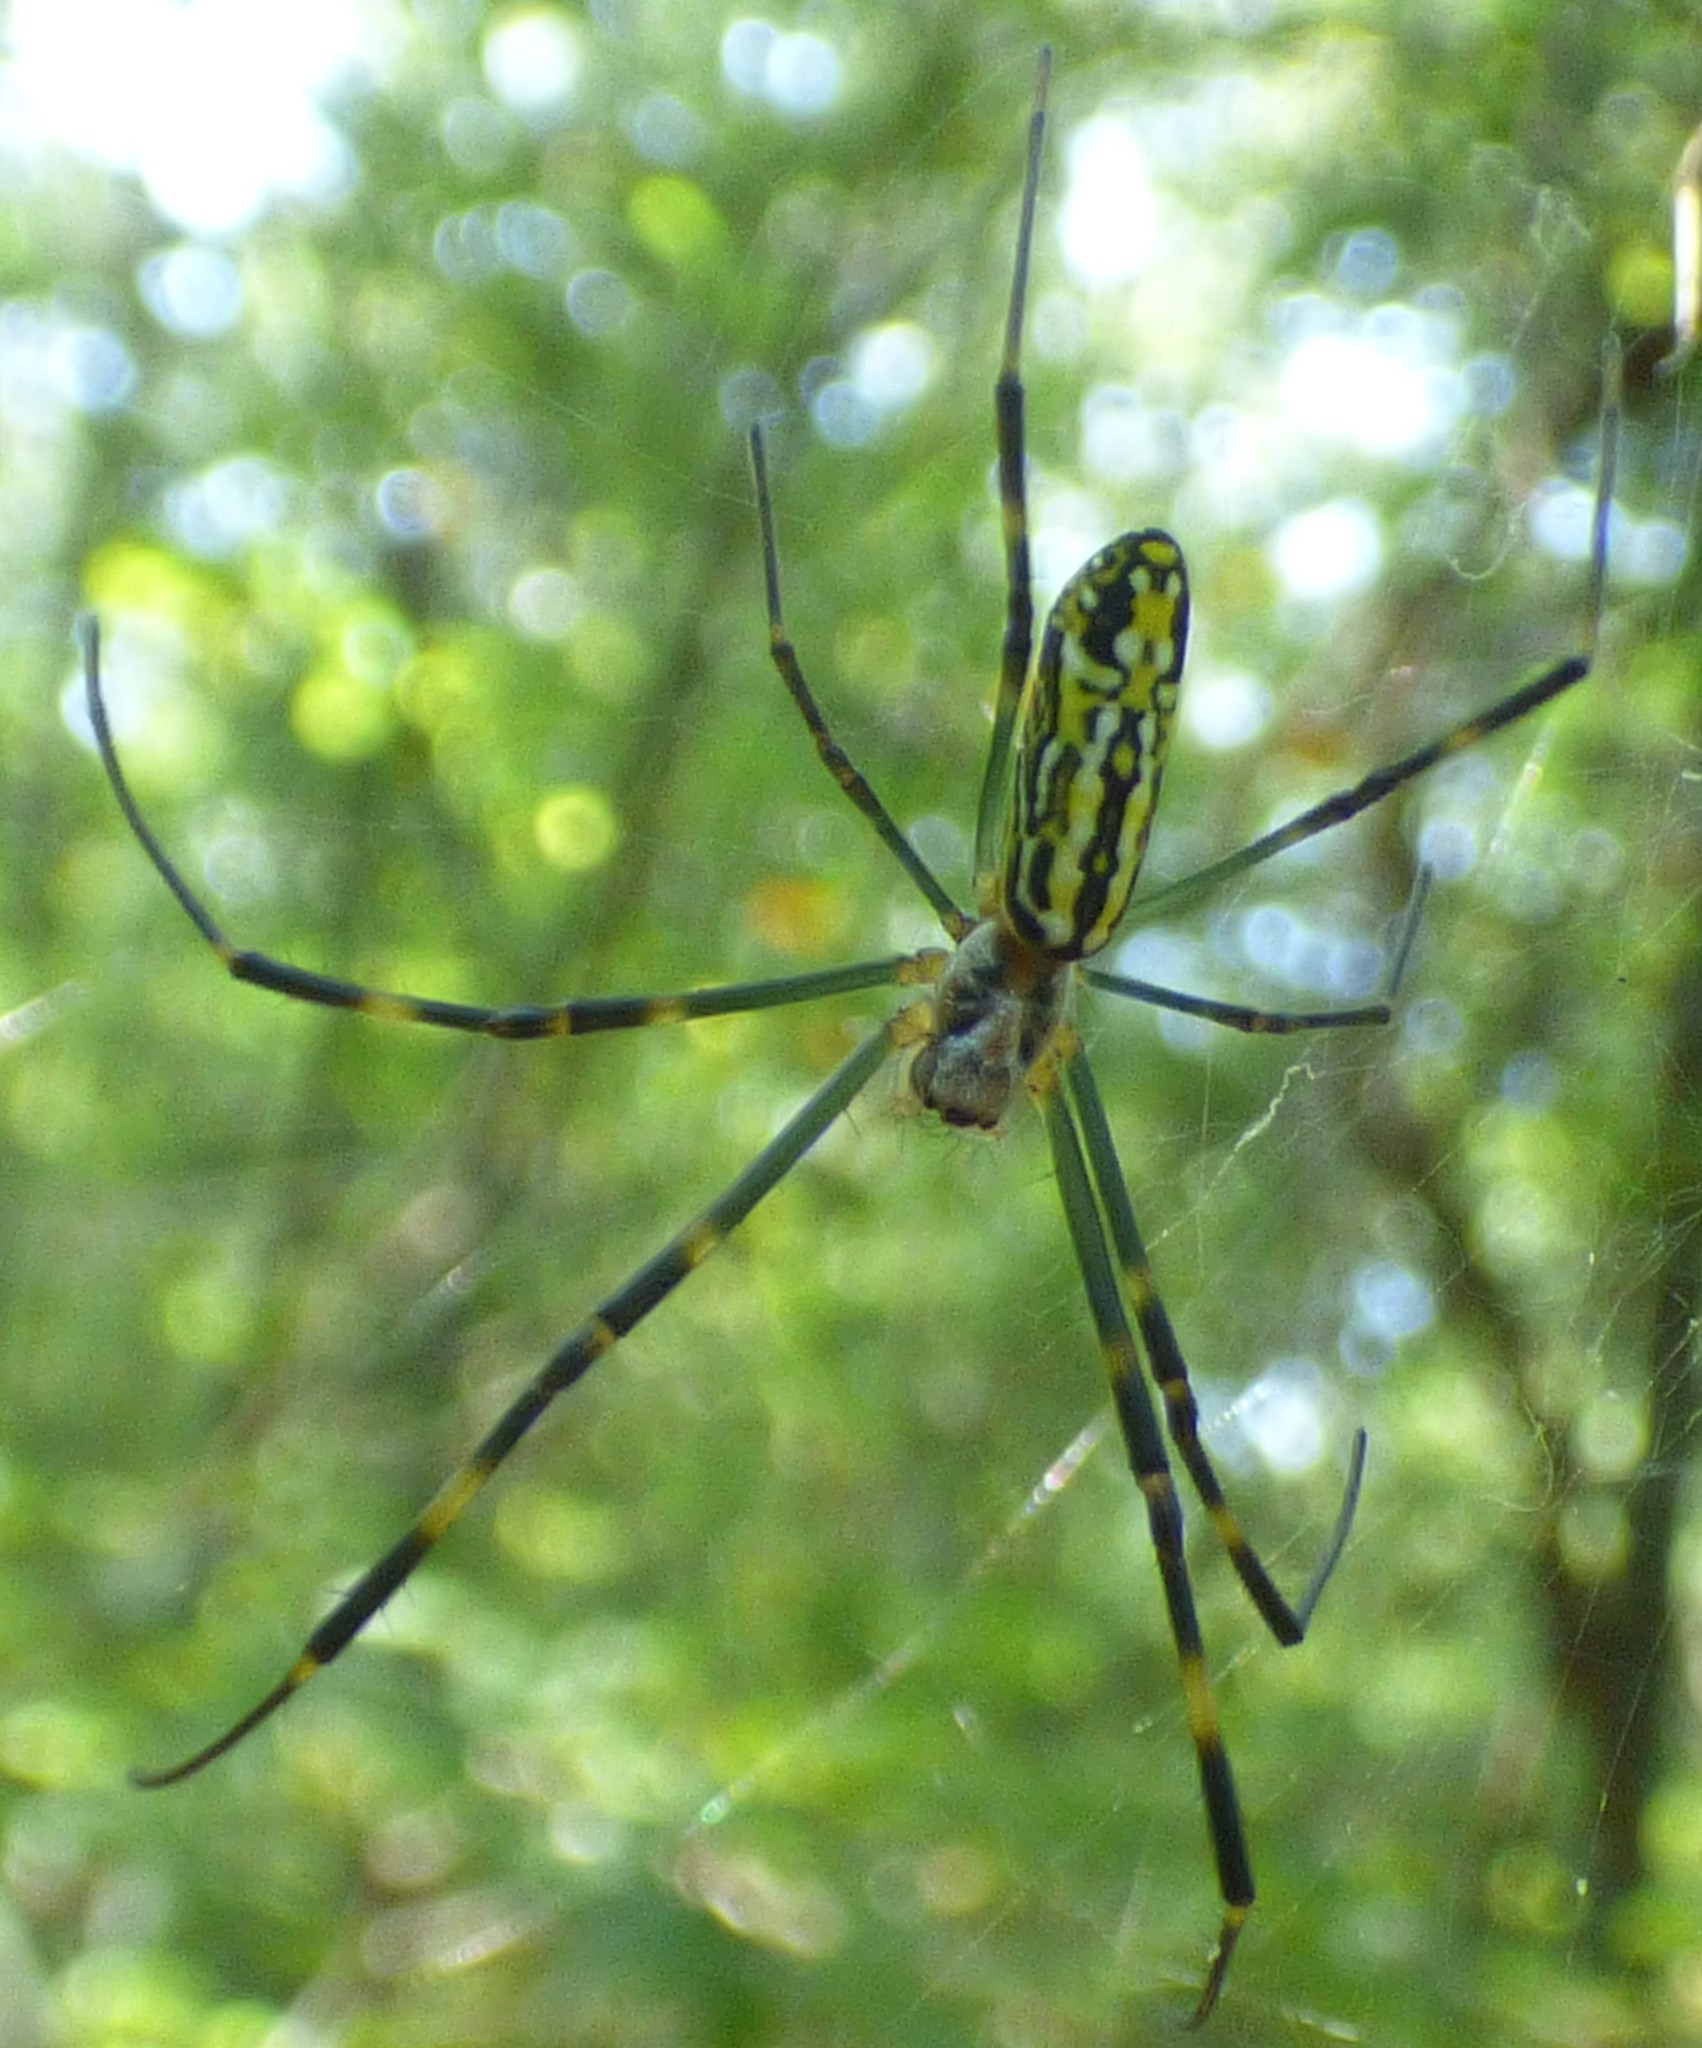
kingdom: Animalia
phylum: Arthropoda
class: Arachnida
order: Araneae
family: Araneidae
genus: Trichonephila
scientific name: Trichonephila clavata
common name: Jorō spider
